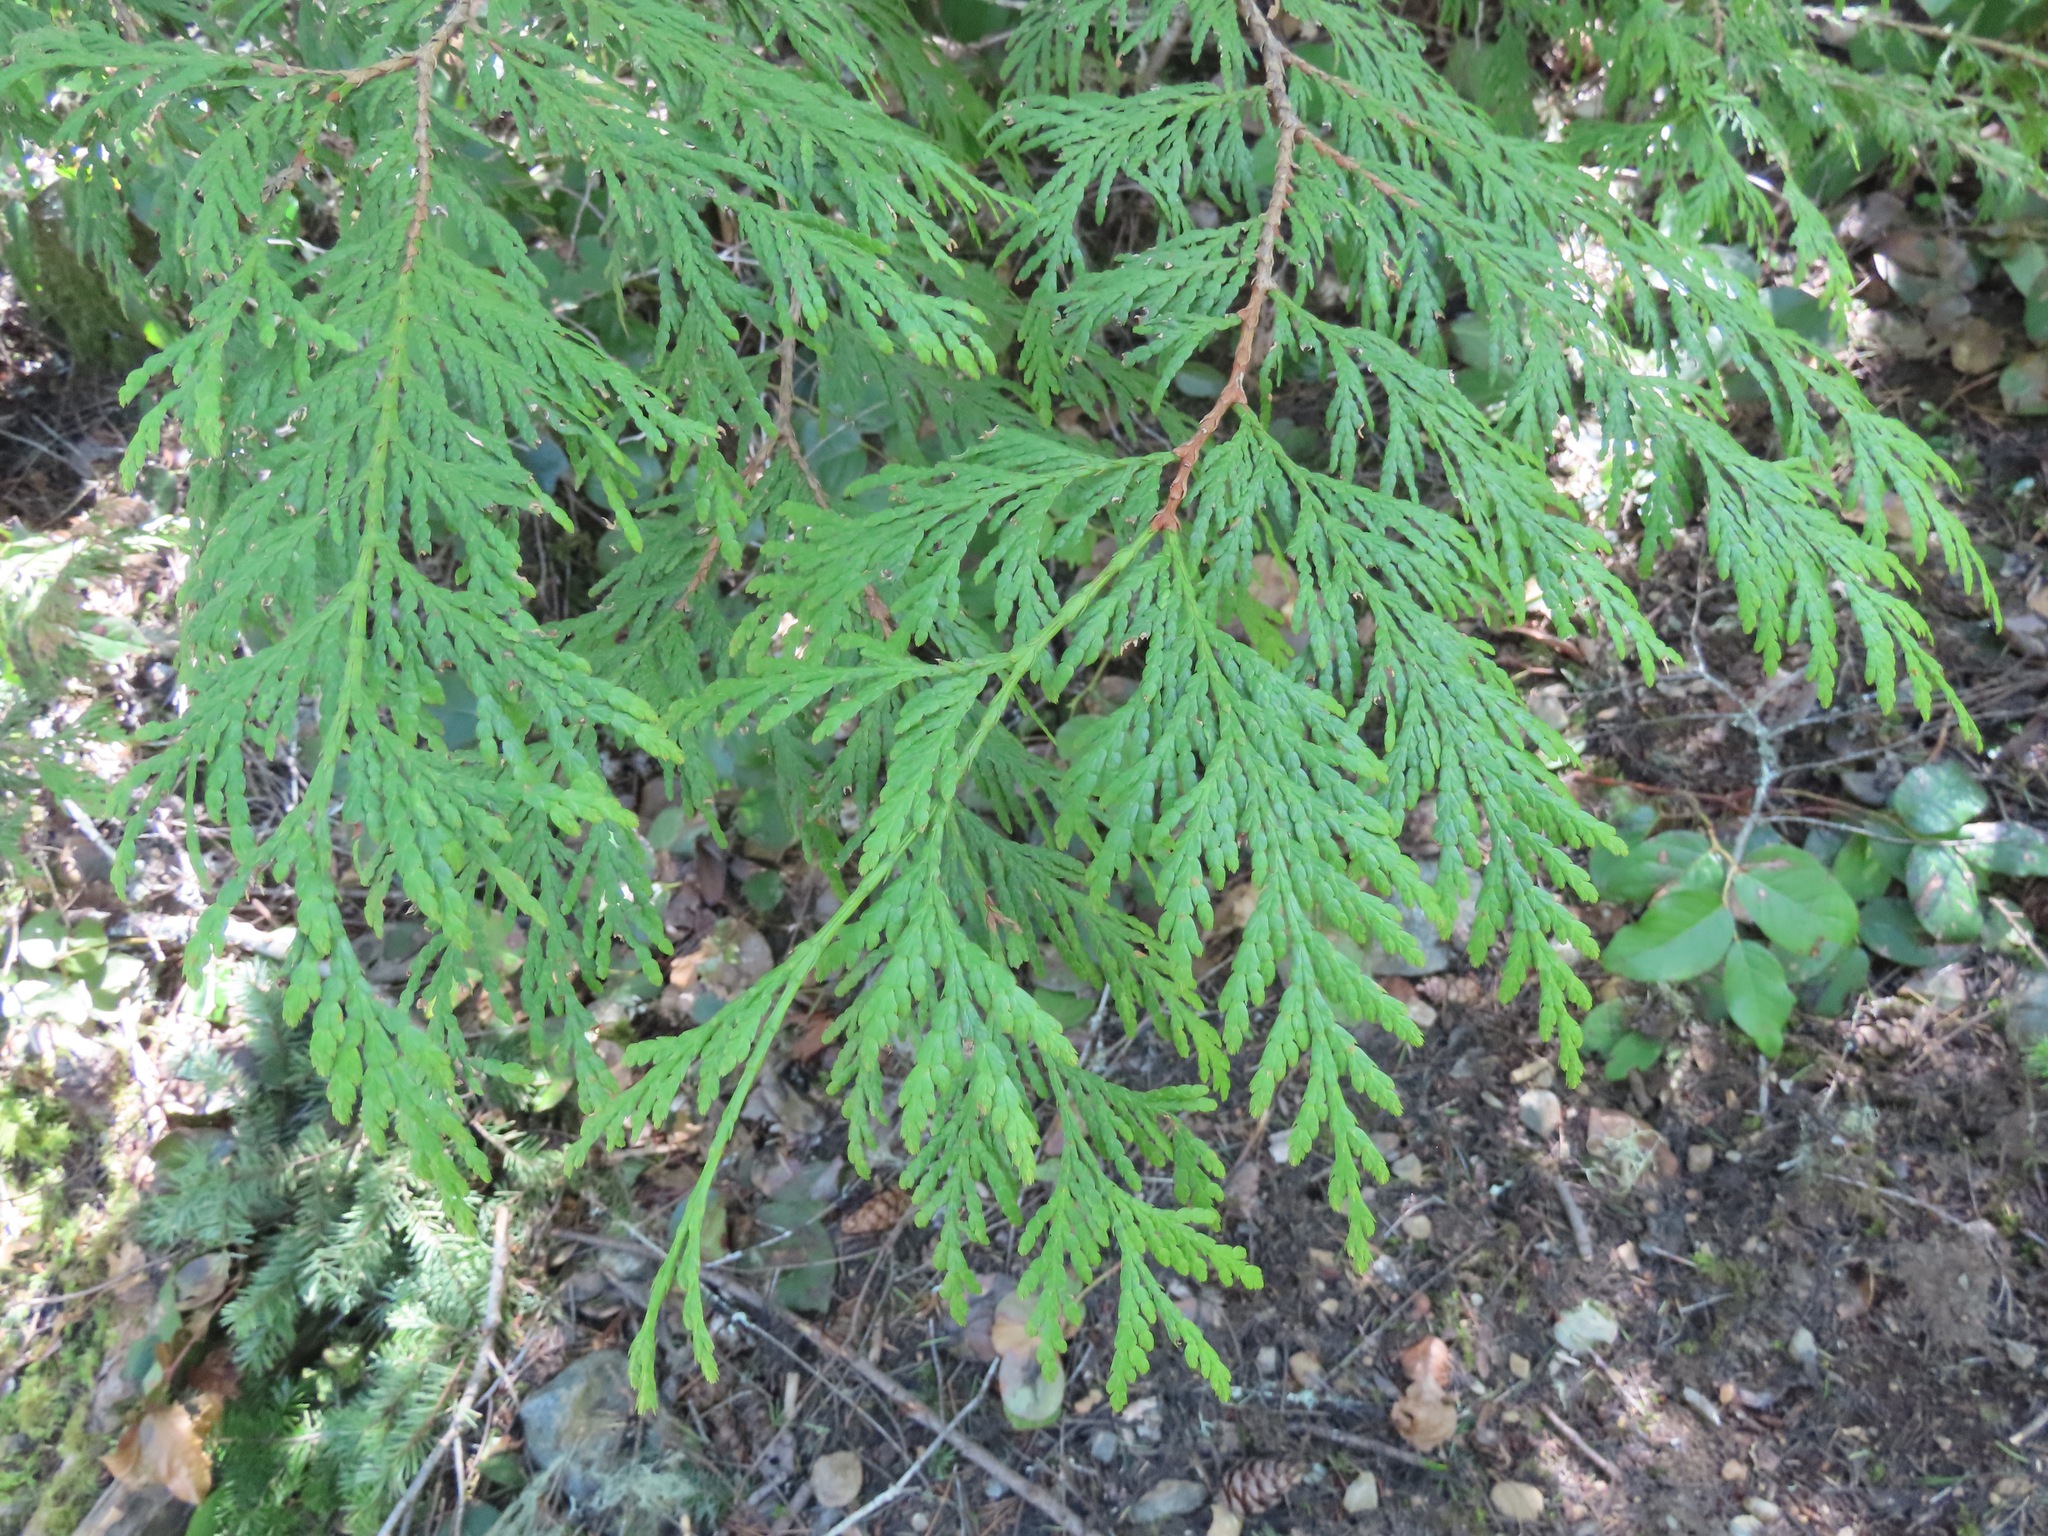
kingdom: Plantae
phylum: Tracheophyta
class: Pinopsida
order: Pinales
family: Cupressaceae
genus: Thuja
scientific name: Thuja plicata
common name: Western red-cedar
